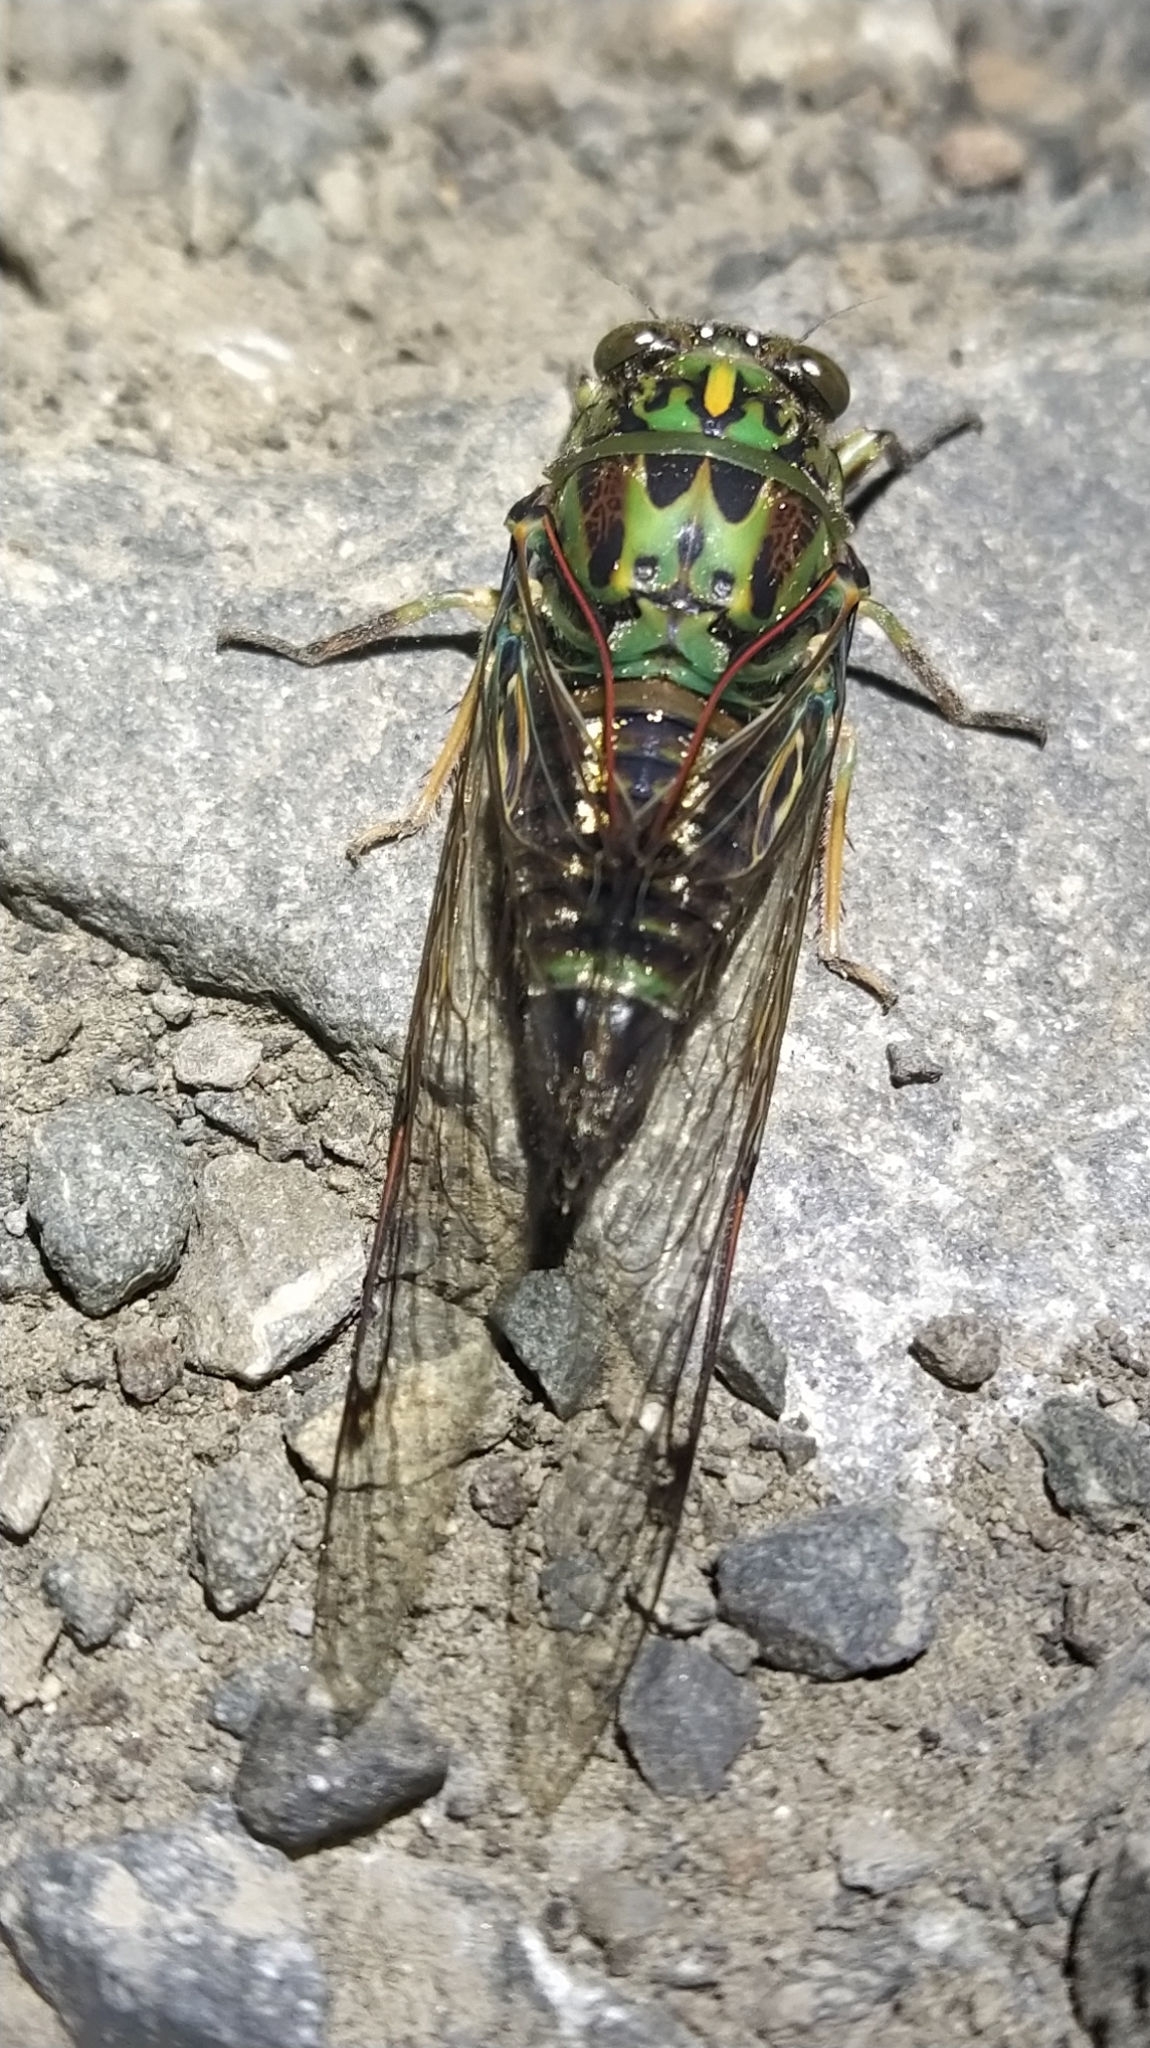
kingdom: Animalia
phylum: Arthropoda
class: Insecta
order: Hemiptera
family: Cicadidae
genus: Amphipsalta
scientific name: Amphipsalta zelandica
